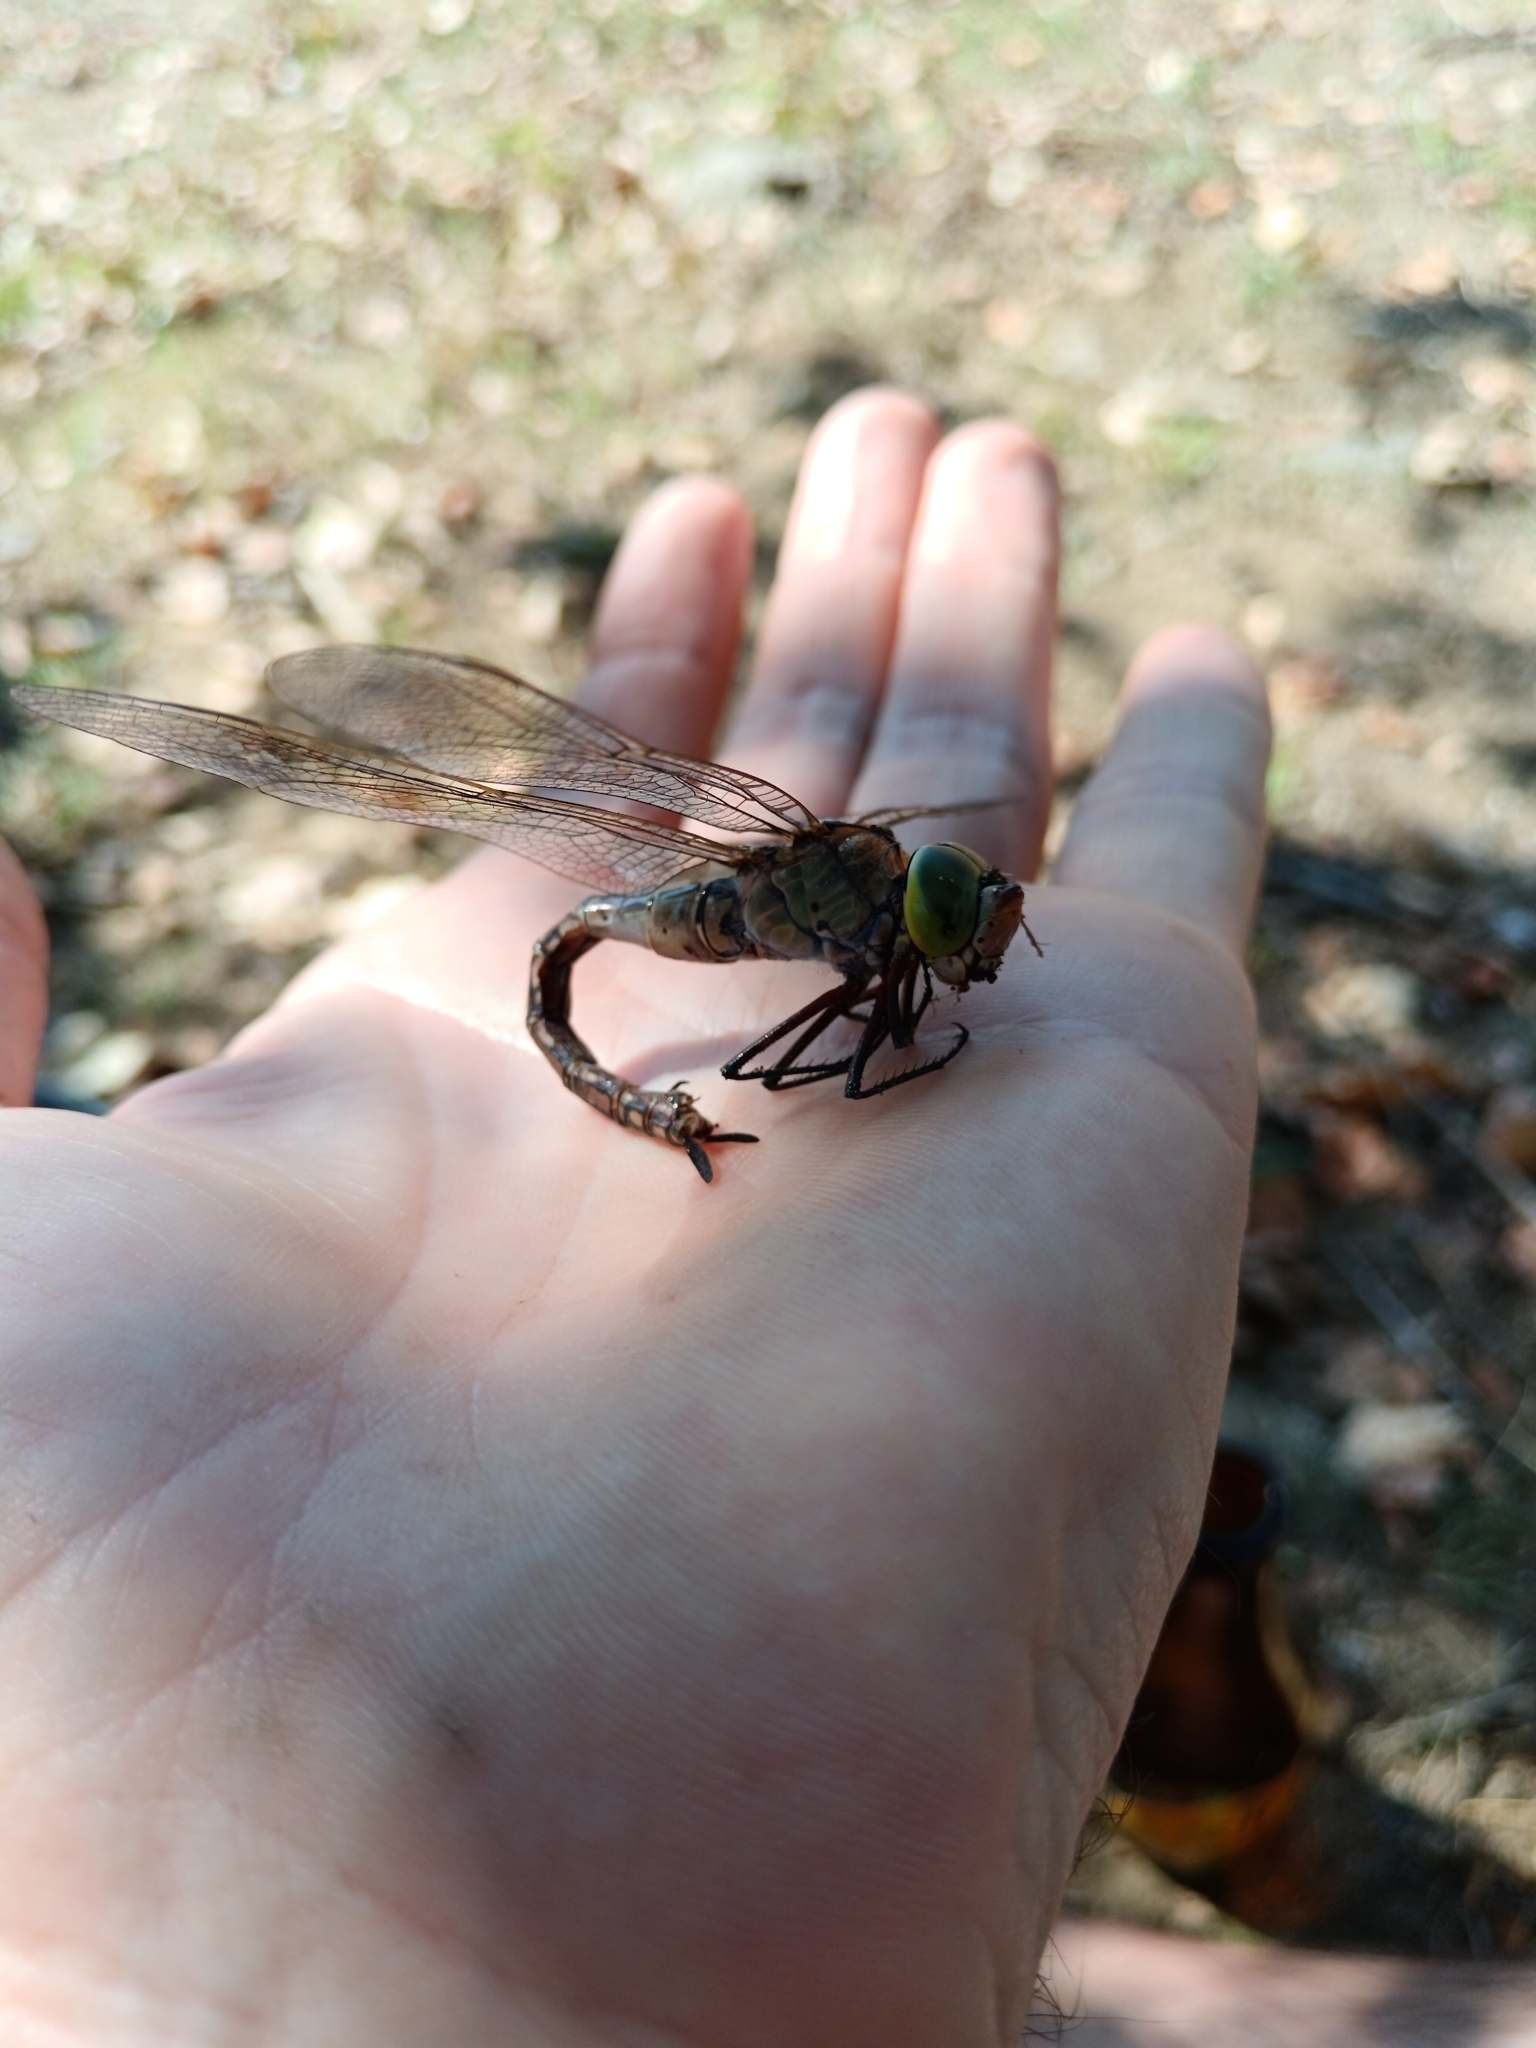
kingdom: Animalia
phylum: Arthropoda
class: Insecta
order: Odonata
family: Aeshnidae
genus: Anax
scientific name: Anax parthenope
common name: Lesser emperor
